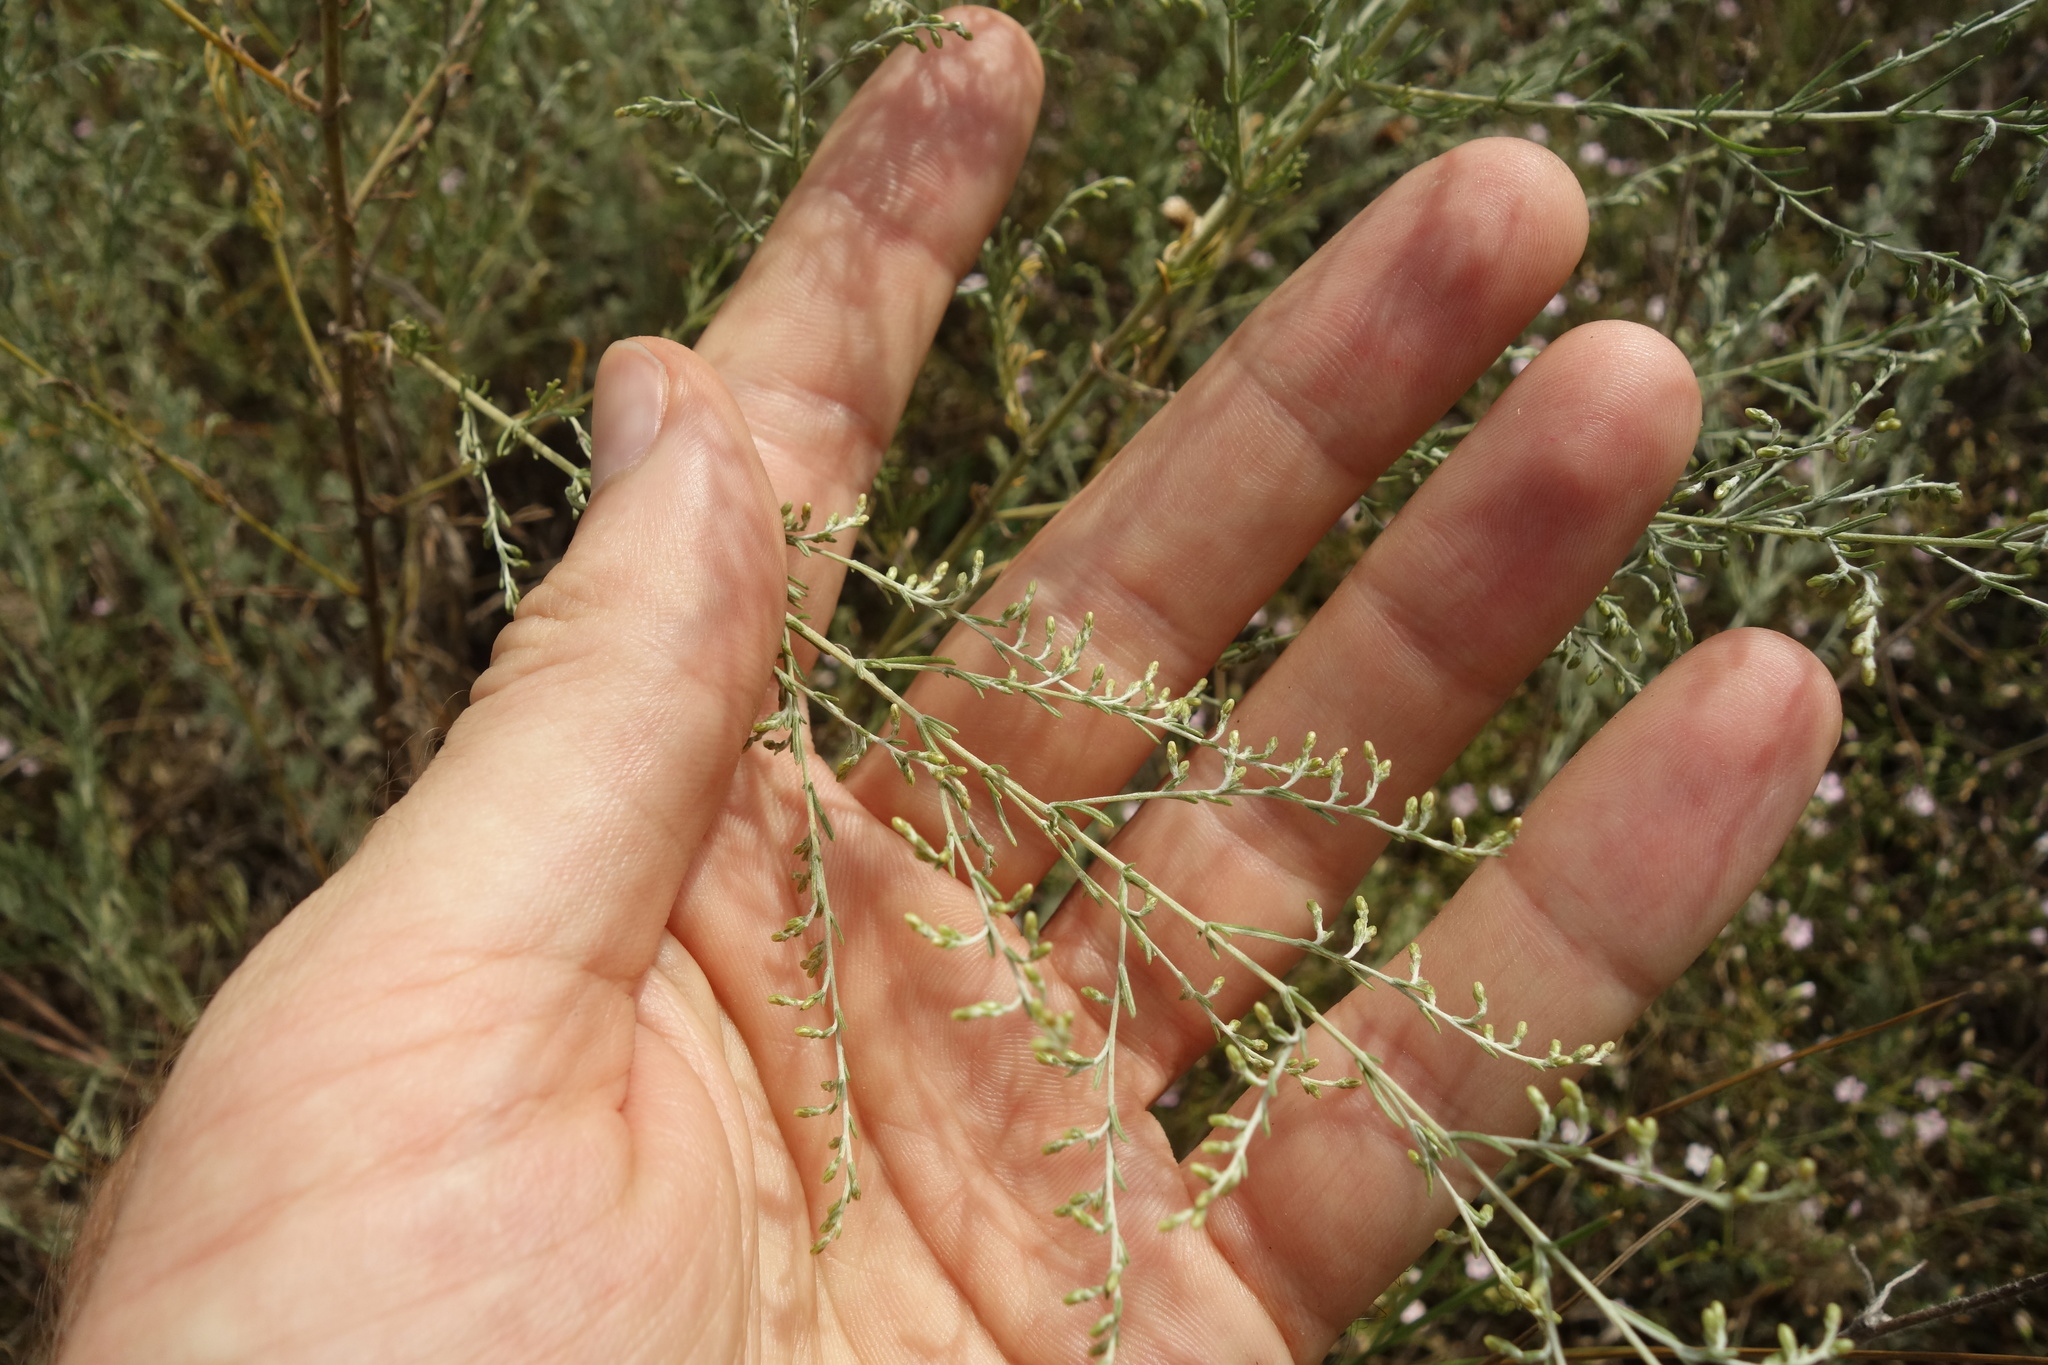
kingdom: Plantae
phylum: Tracheophyta
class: Magnoliopsida
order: Asterales
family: Asteraceae
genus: Artemisia
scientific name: Artemisia santonicum
